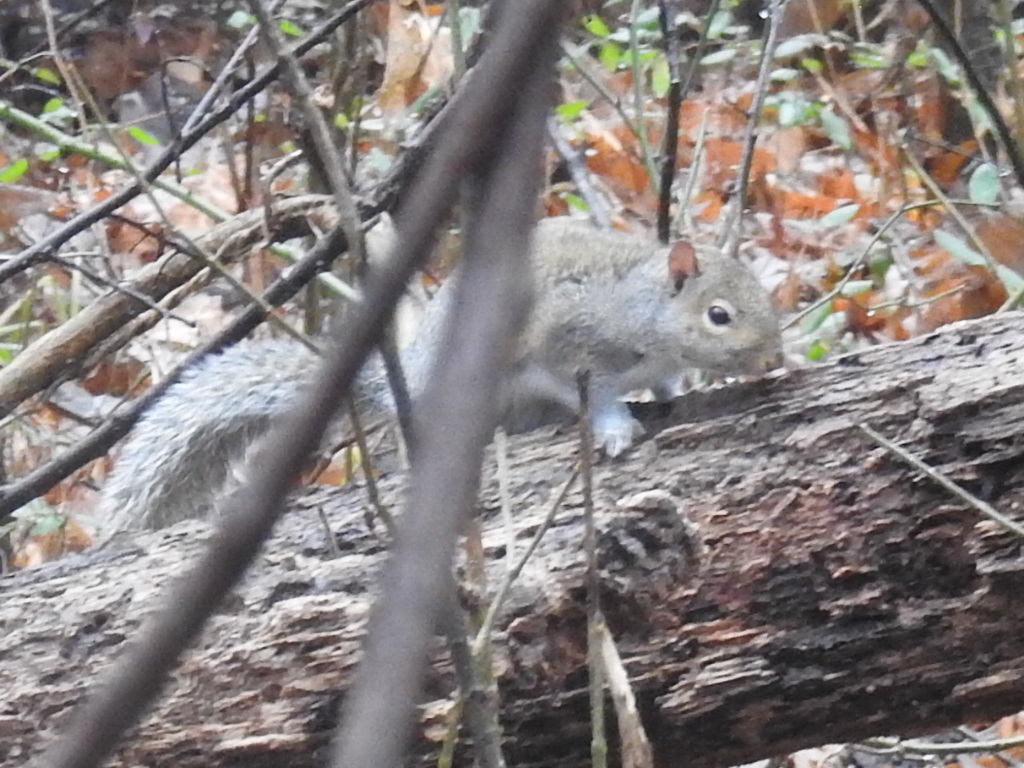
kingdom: Animalia
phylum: Chordata
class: Mammalia
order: Rodentia
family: Sciuridae
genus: Sciurus
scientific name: Sciurus carolinensis
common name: Eastern gray squirrel
